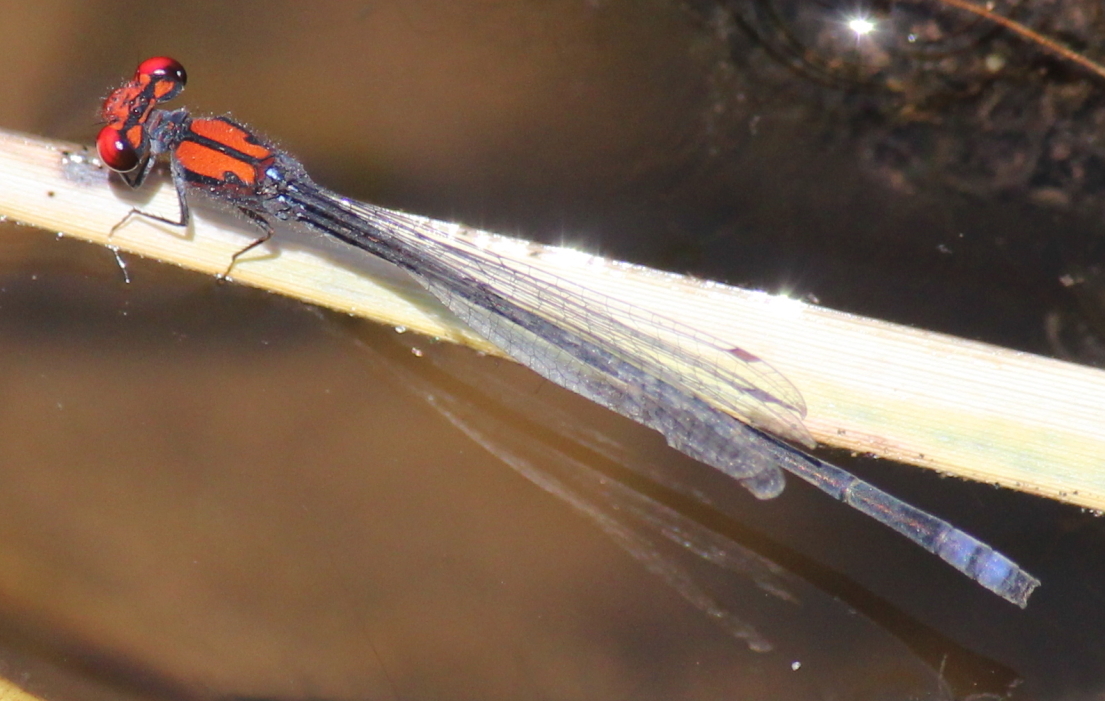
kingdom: Animalia
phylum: Arthropoda
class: Insecta
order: Odonata
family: Coenagrionidae
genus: Pseudagrion
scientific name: Pseudagrion massaicum
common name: Masai sprite
